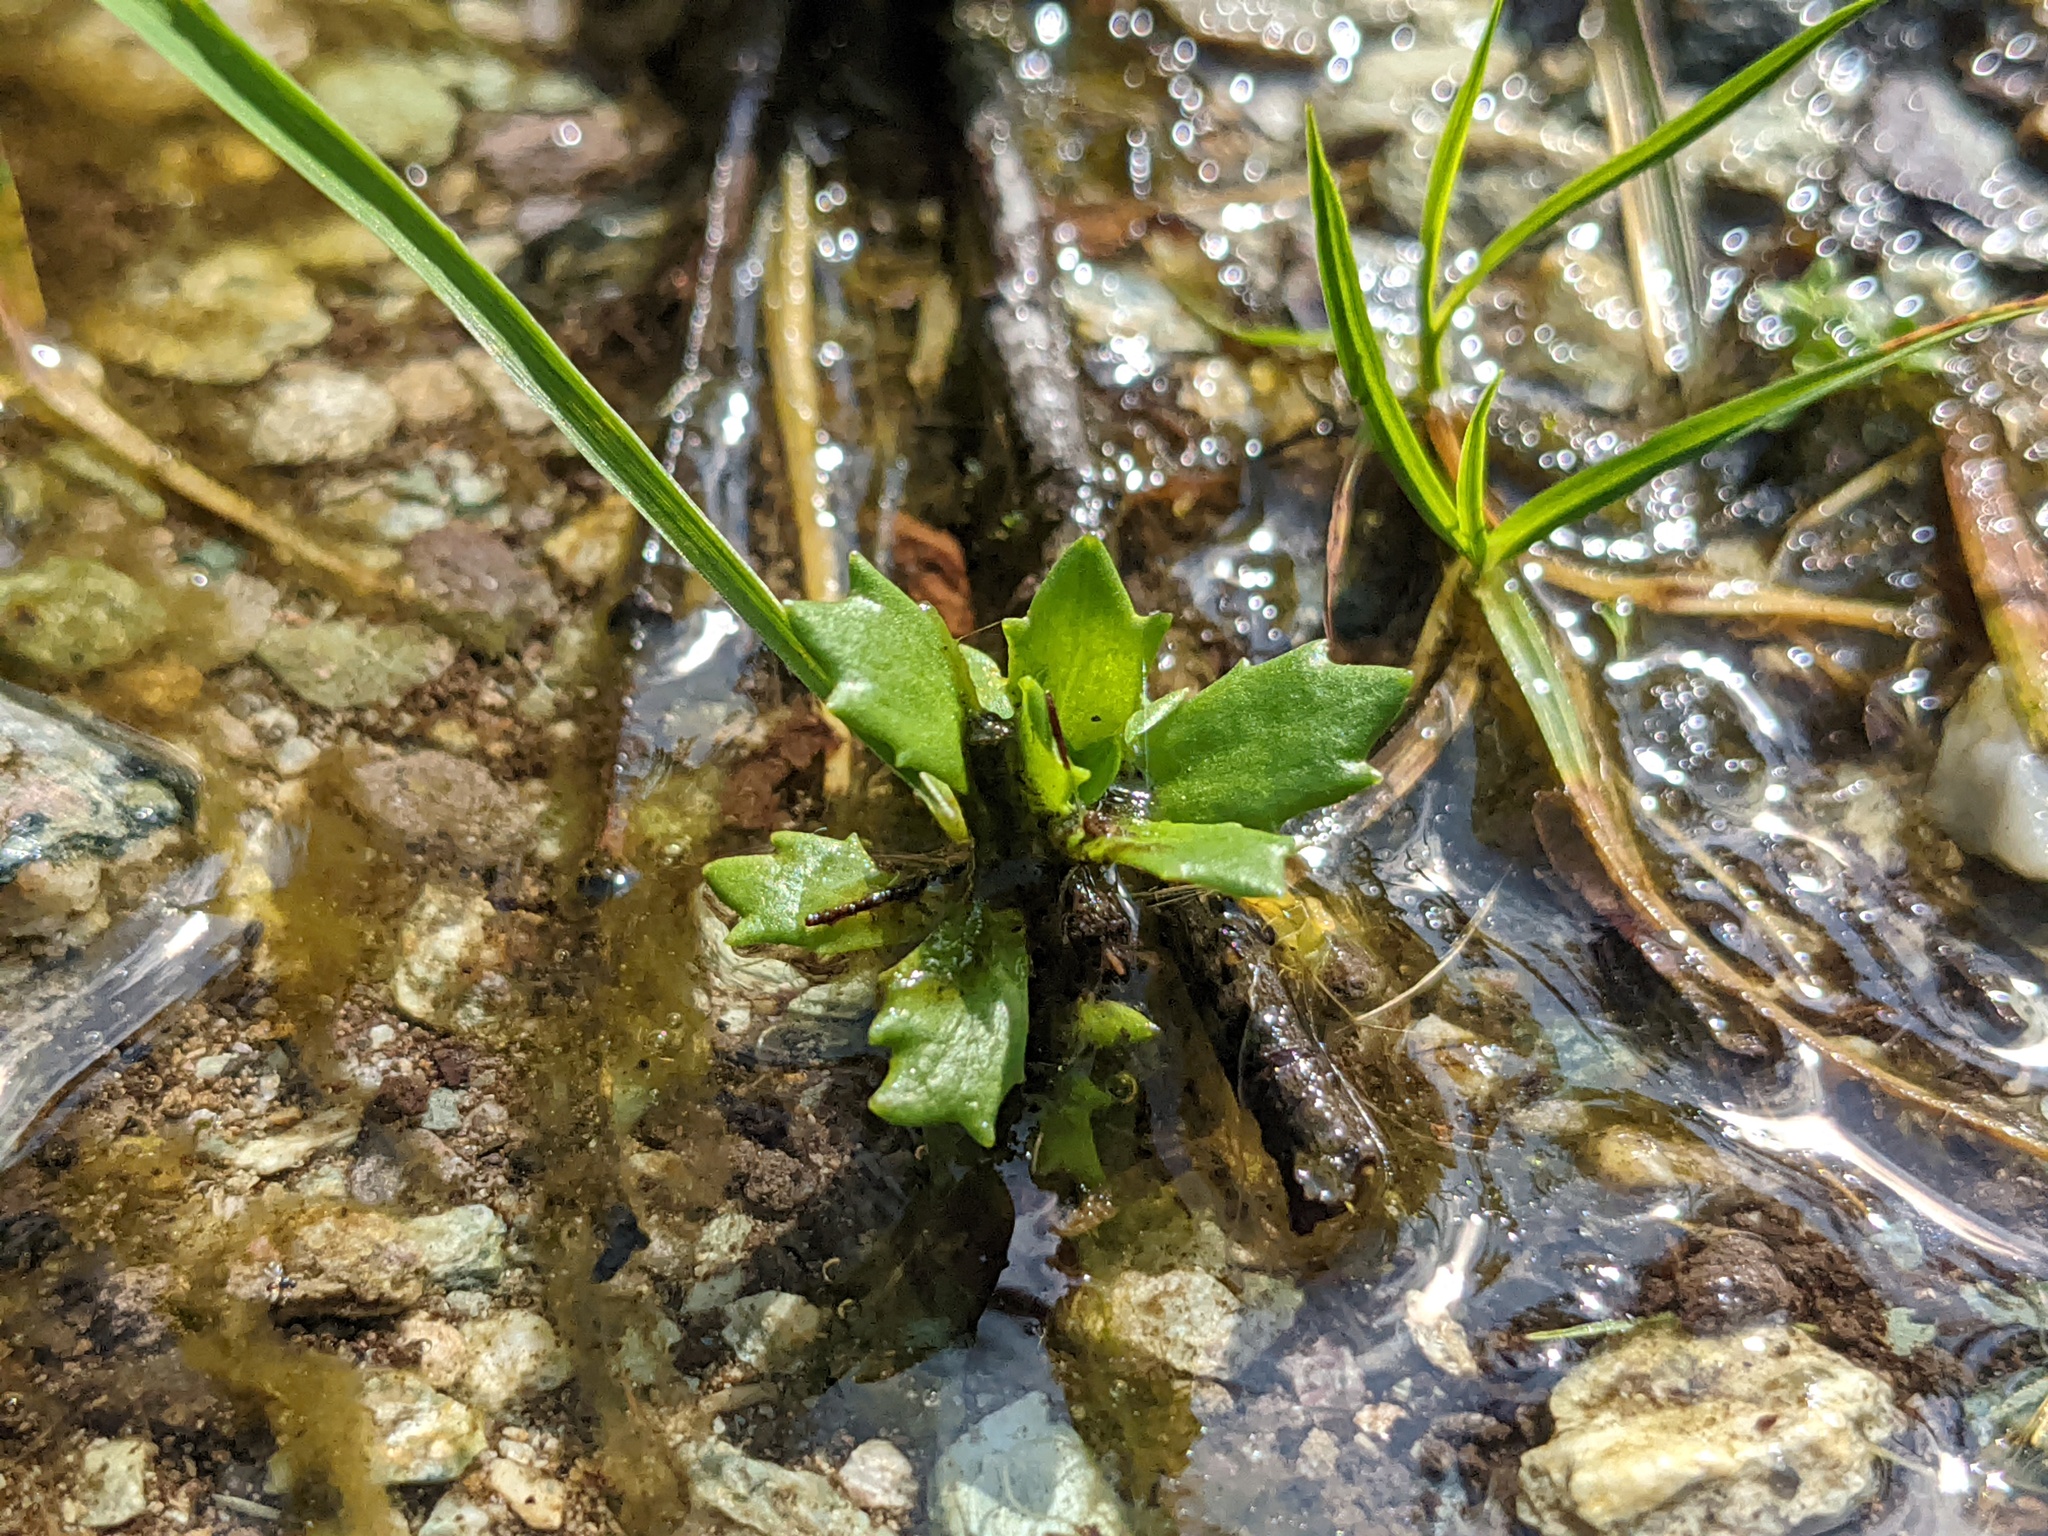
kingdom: Plantae
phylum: Tracheophyta
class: Magnoliopsida
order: Saxifragales
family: Saxifragaceae
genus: Micranthes
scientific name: Micranthes stellaris
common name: Starry saxifrage
